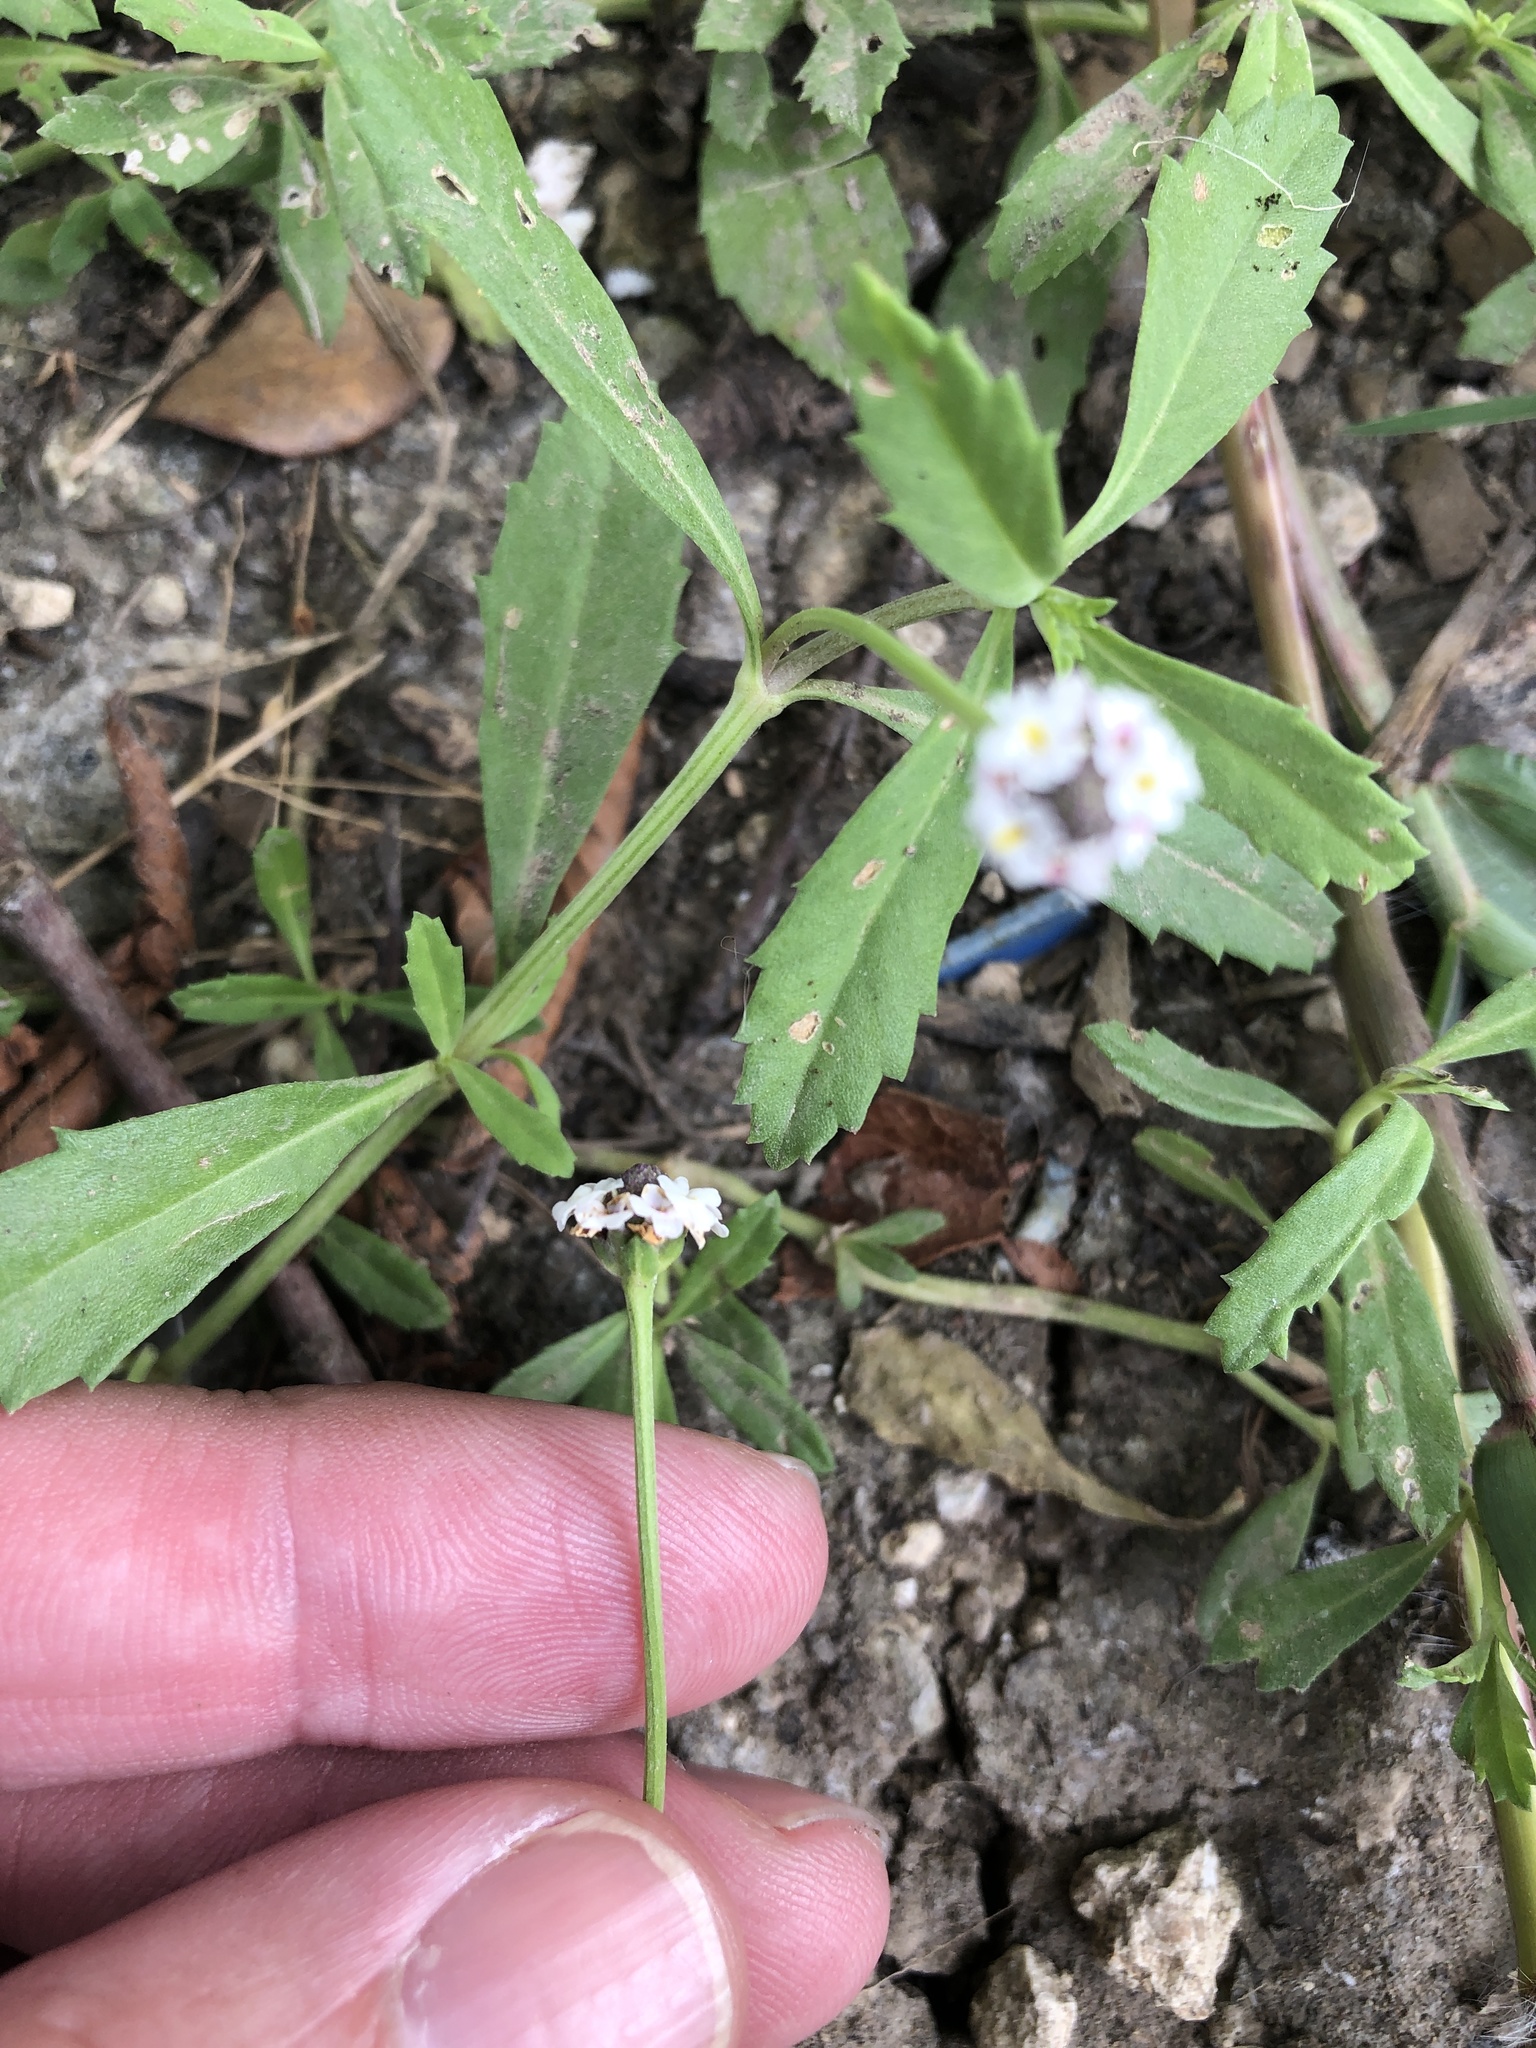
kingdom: Plantae
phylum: Tracheophyta
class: Magnoliopsida
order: Lamiales
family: Verbenaceae
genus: Phyla
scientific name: Phyla nodiflora
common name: Frogfruit
